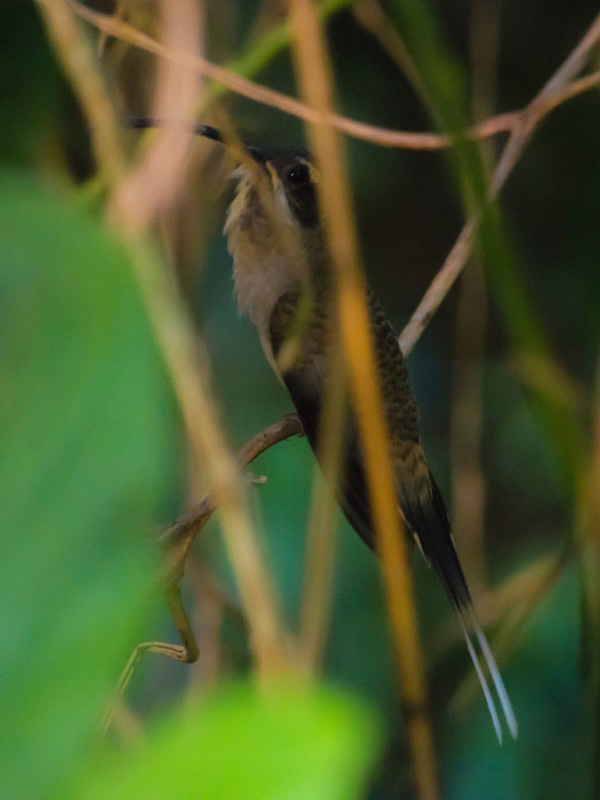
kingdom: Animalia
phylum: Chordata
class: Aves
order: Apodiformes
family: Trochilidae
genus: Phaethornis
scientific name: Phaethornis longirostris
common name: Long-billed hermit
